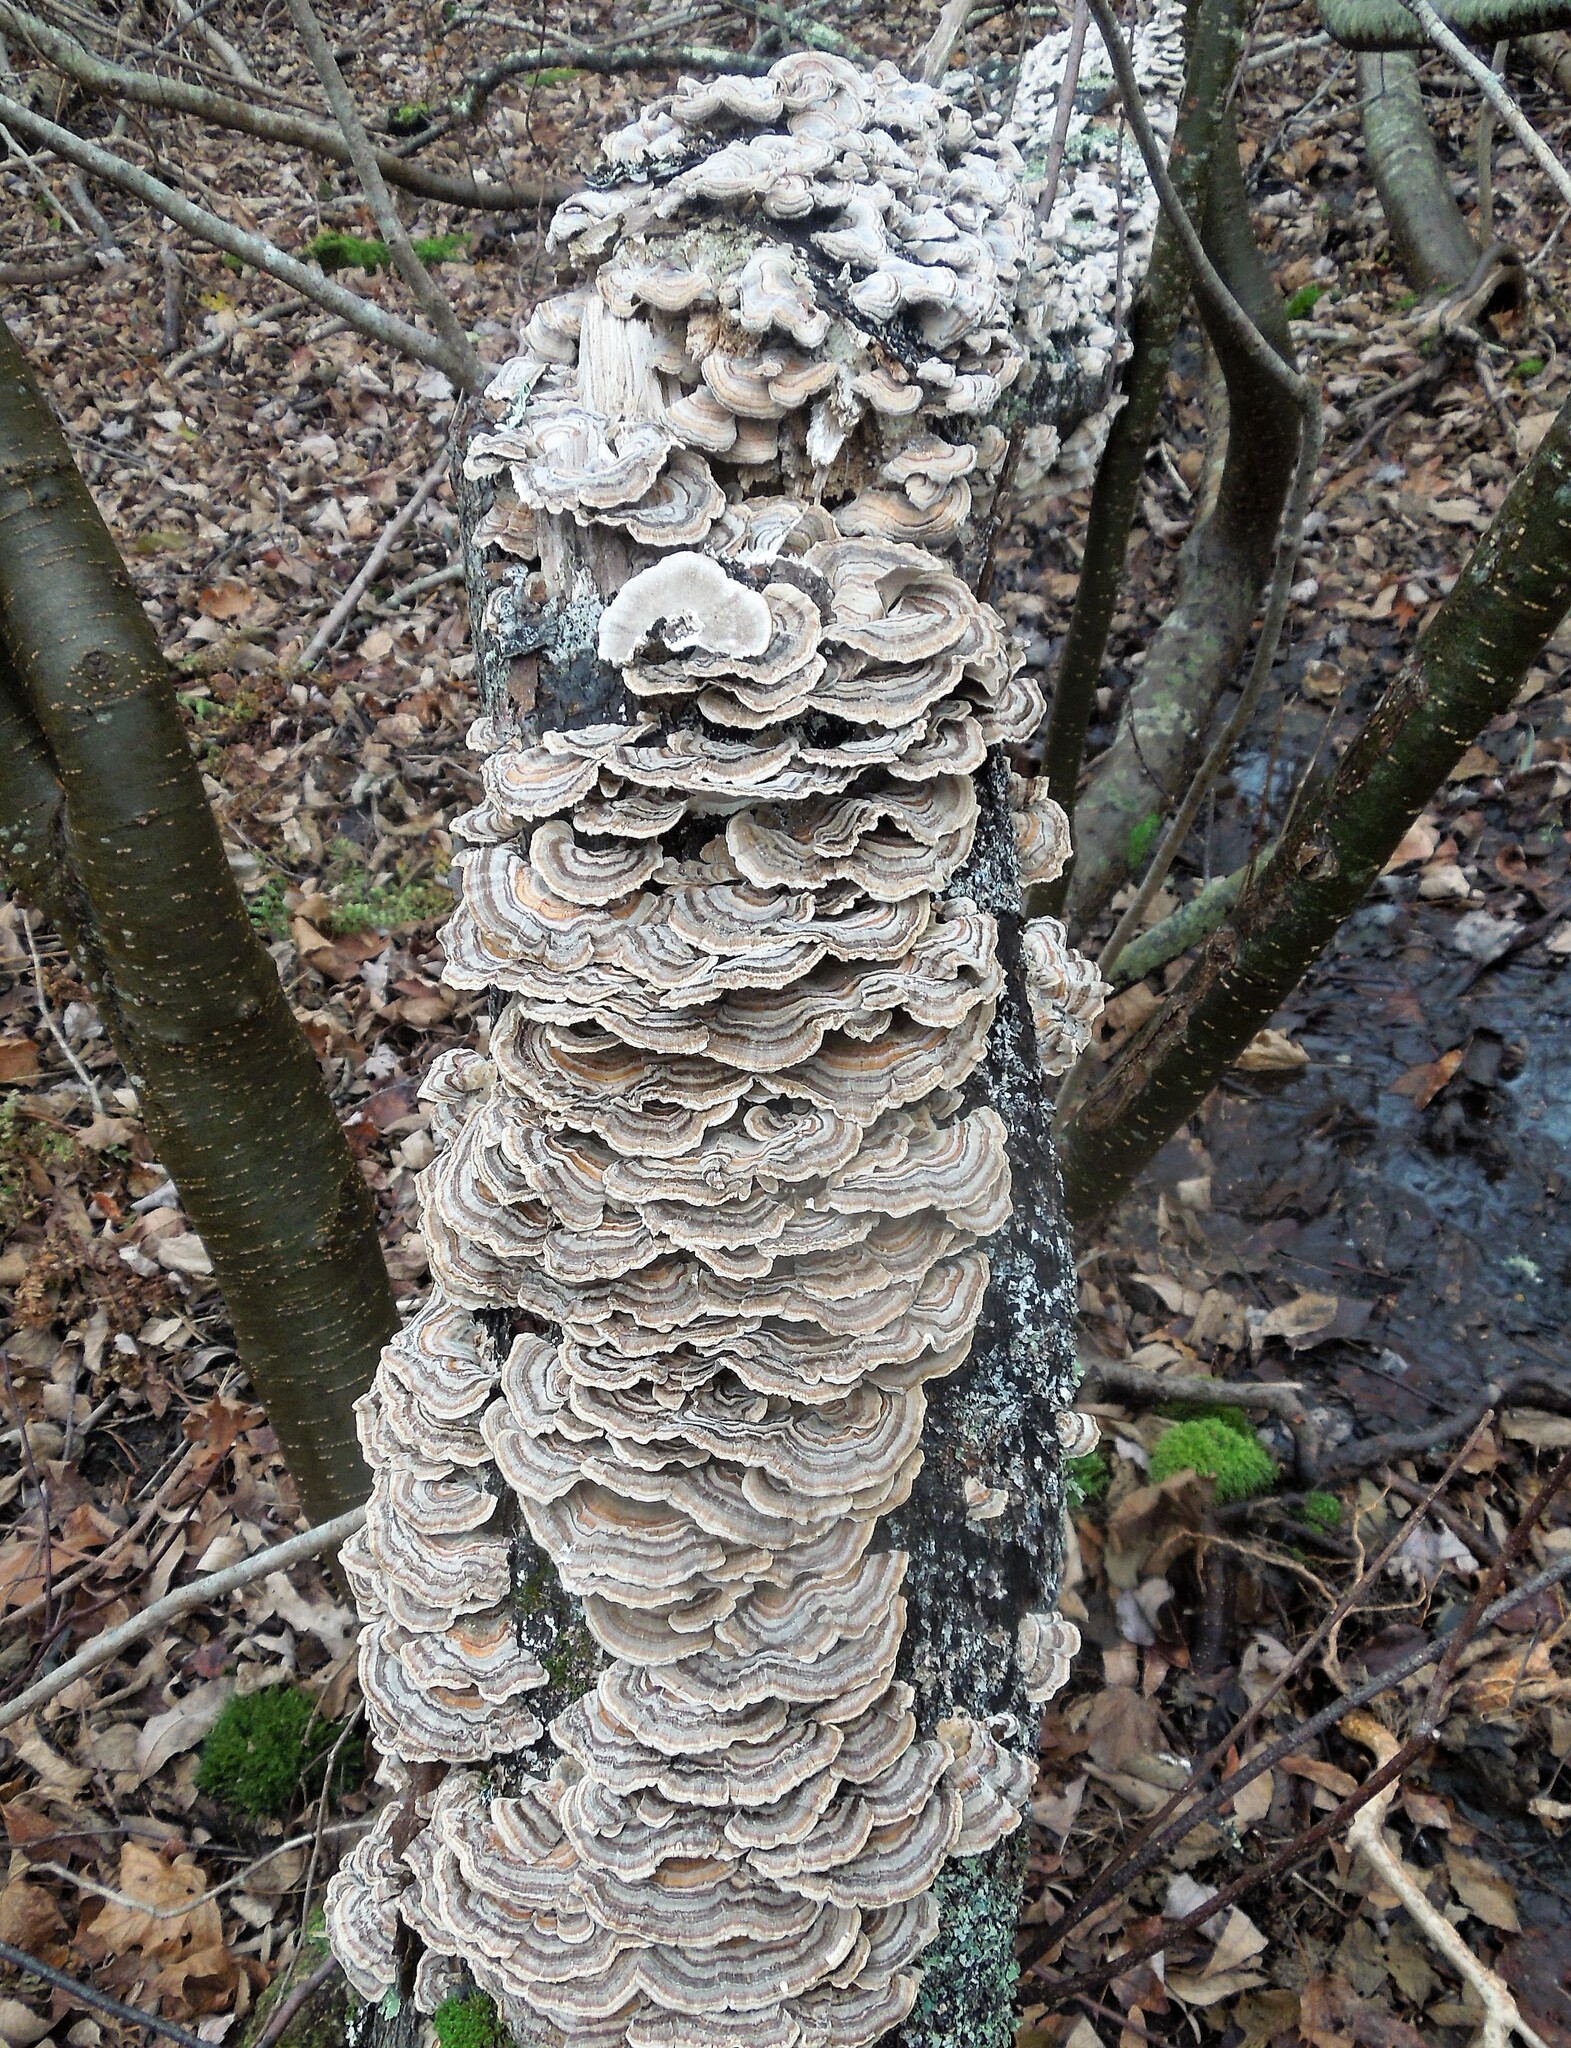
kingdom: Fungi
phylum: Basidiomycota
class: Agaricomycetes
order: Polyporales
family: Polyporaceae
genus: Trametes
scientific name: Trametes versicolor
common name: Turkeytail
